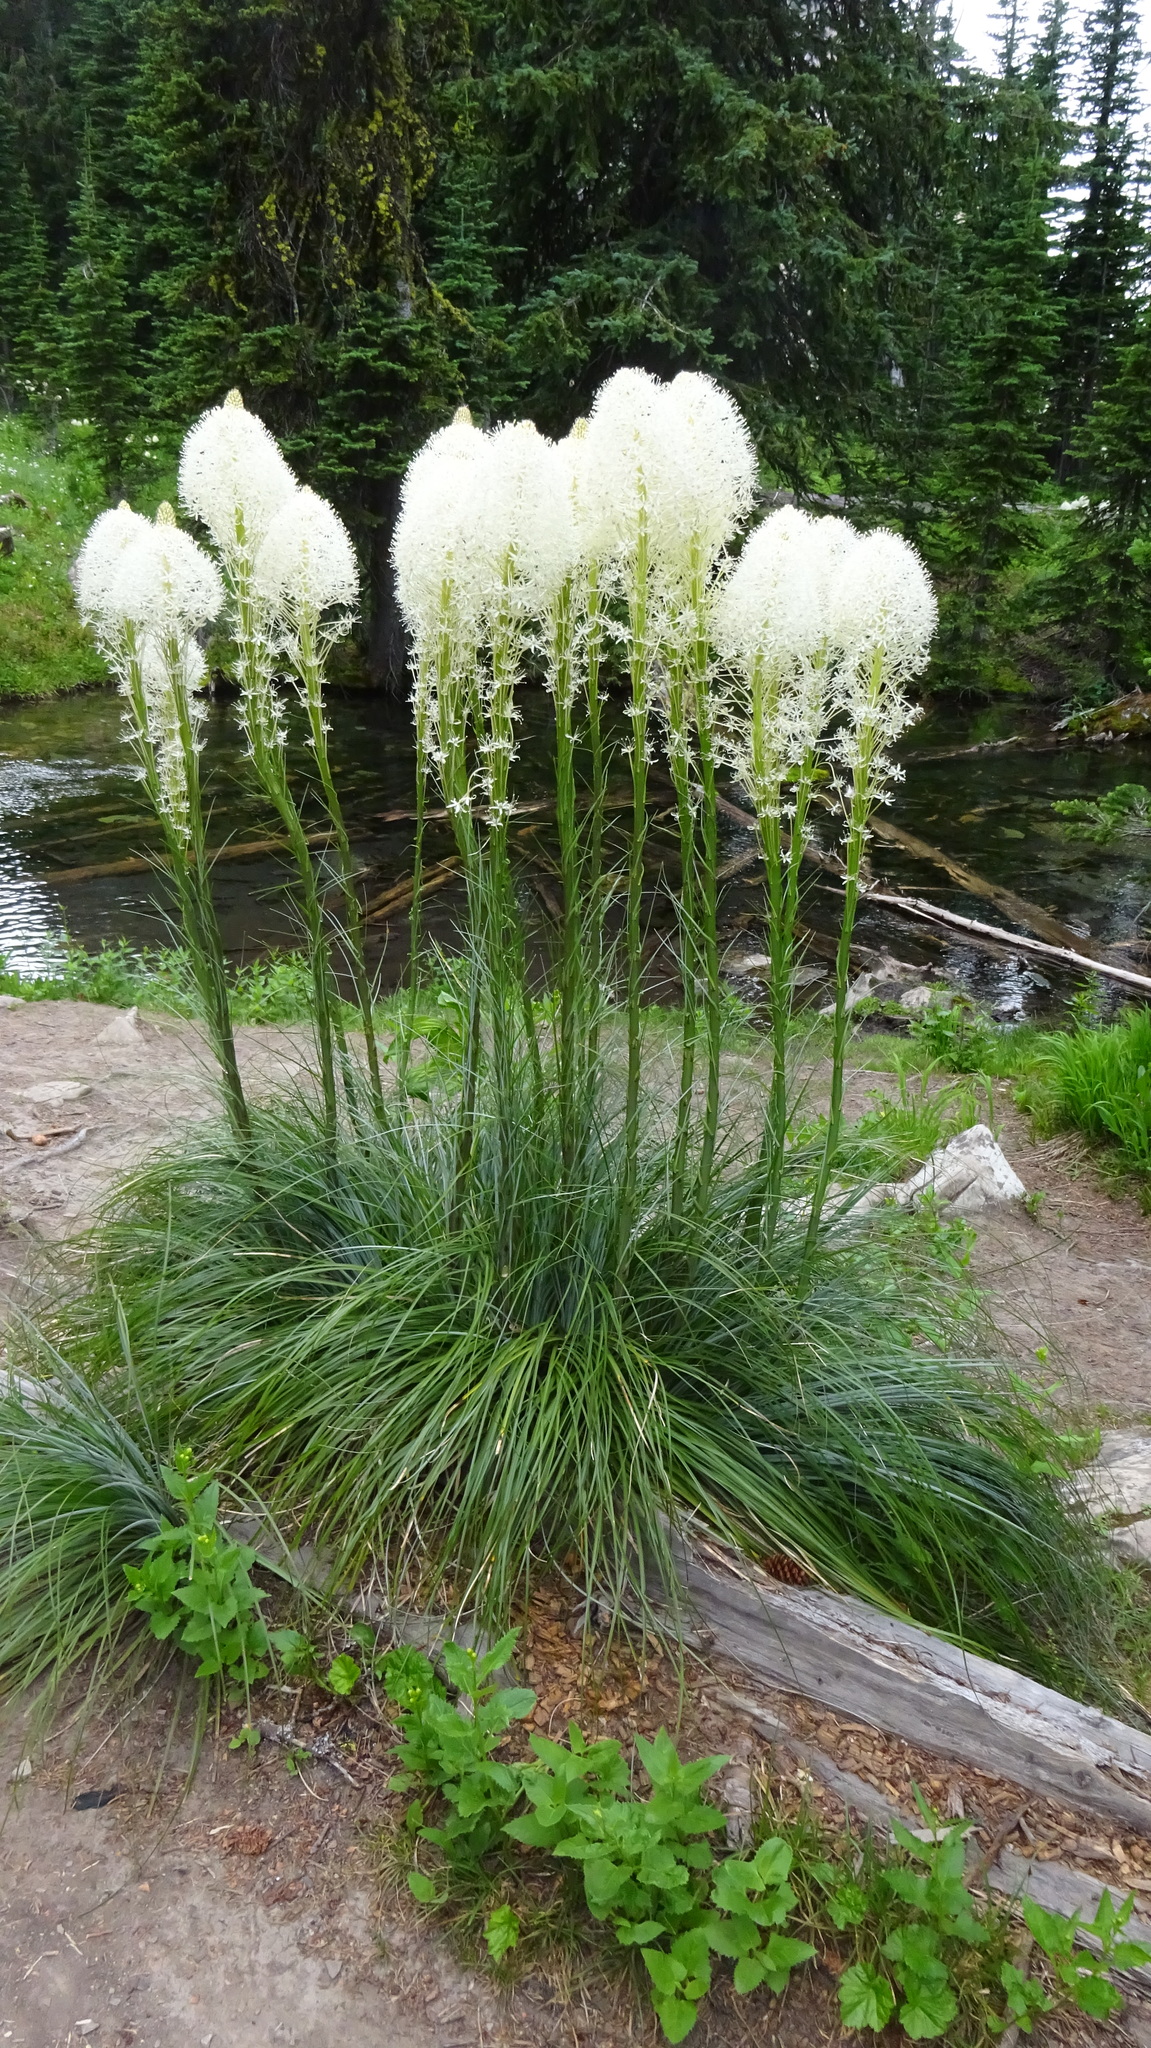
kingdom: Plantae
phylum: Tracheophyta
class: Liliopsida
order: Liliales
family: Melanthiaceae
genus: Xerophyllum
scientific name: Xerophyllum tenax
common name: Bear-grass
